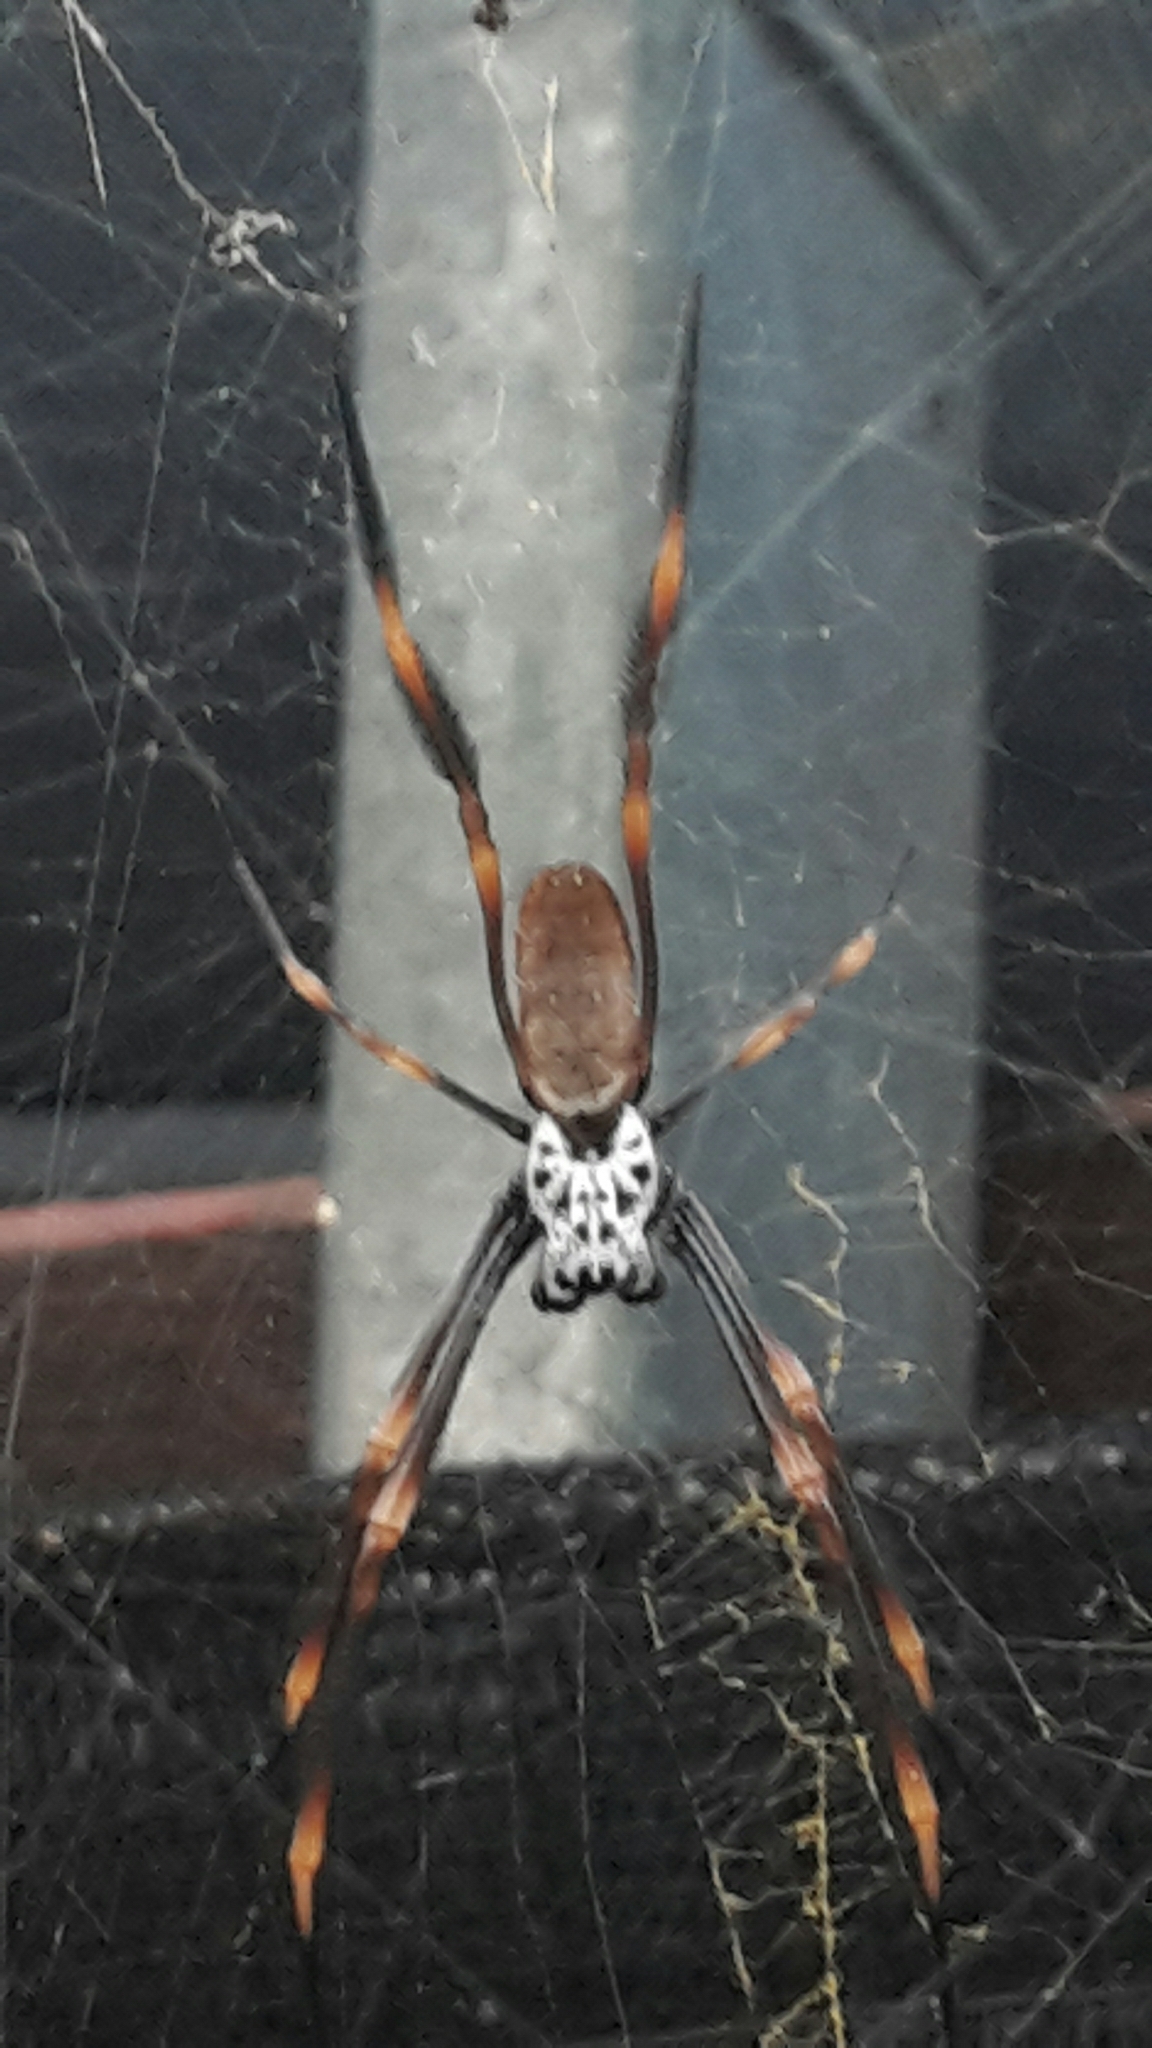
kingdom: Animalia
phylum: Arthropoda
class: Arachnida
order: Araneae
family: Araneidae
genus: Trichonephila
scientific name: Trichonephila plumipes
